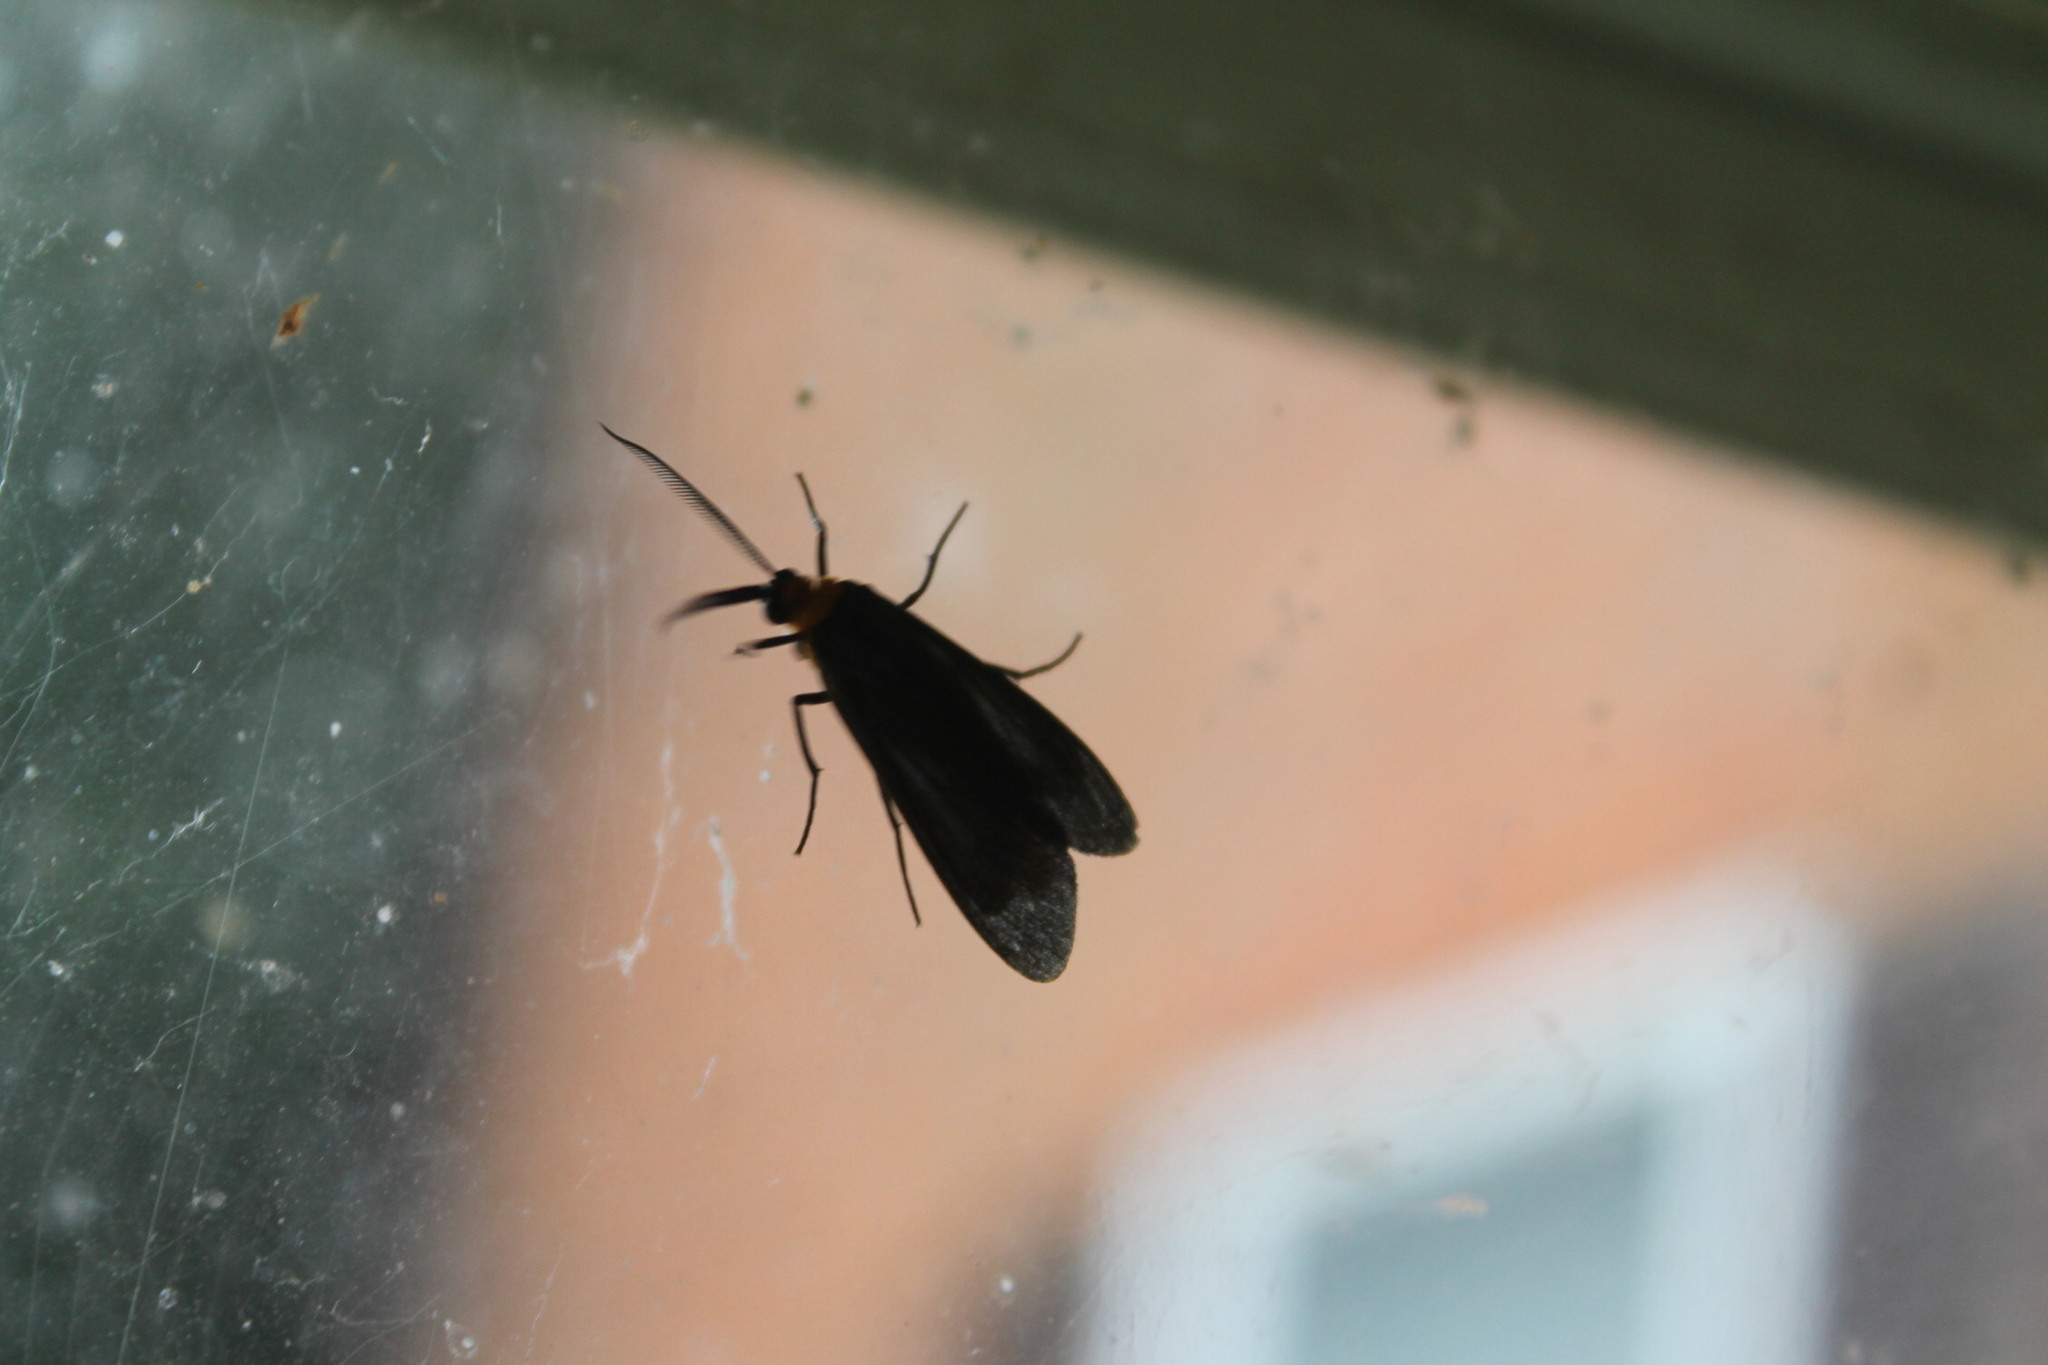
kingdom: Animalia
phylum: Arthropoda
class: Insecta
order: Lepidoptera
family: Erebidae
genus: Cisseps
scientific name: Cisseps fulvicollis
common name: Yellow-collared scape moth
